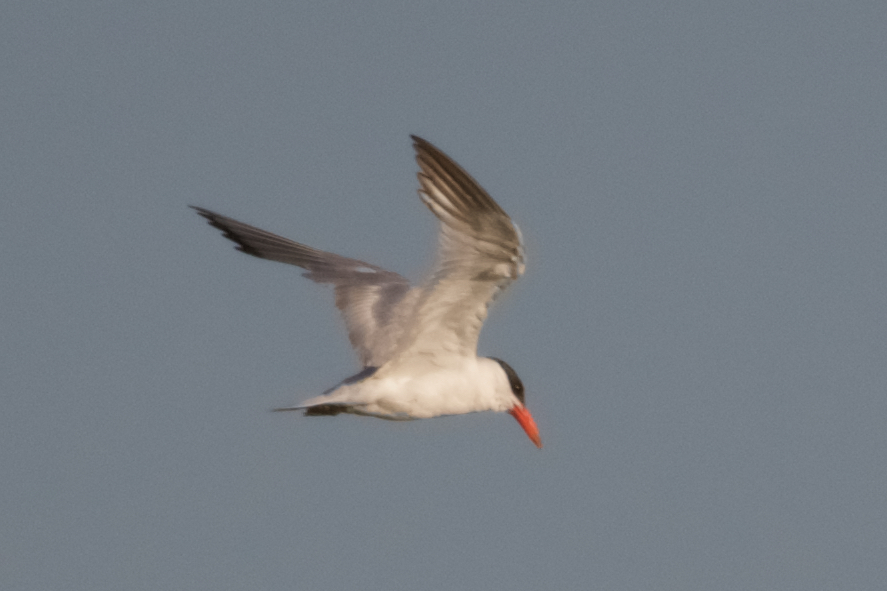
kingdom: Animalia
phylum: Chordata
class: Aves
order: Charadriiformes
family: Laridae
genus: Hydroprogne
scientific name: Hydroprogne caspia
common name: Caspian tern
